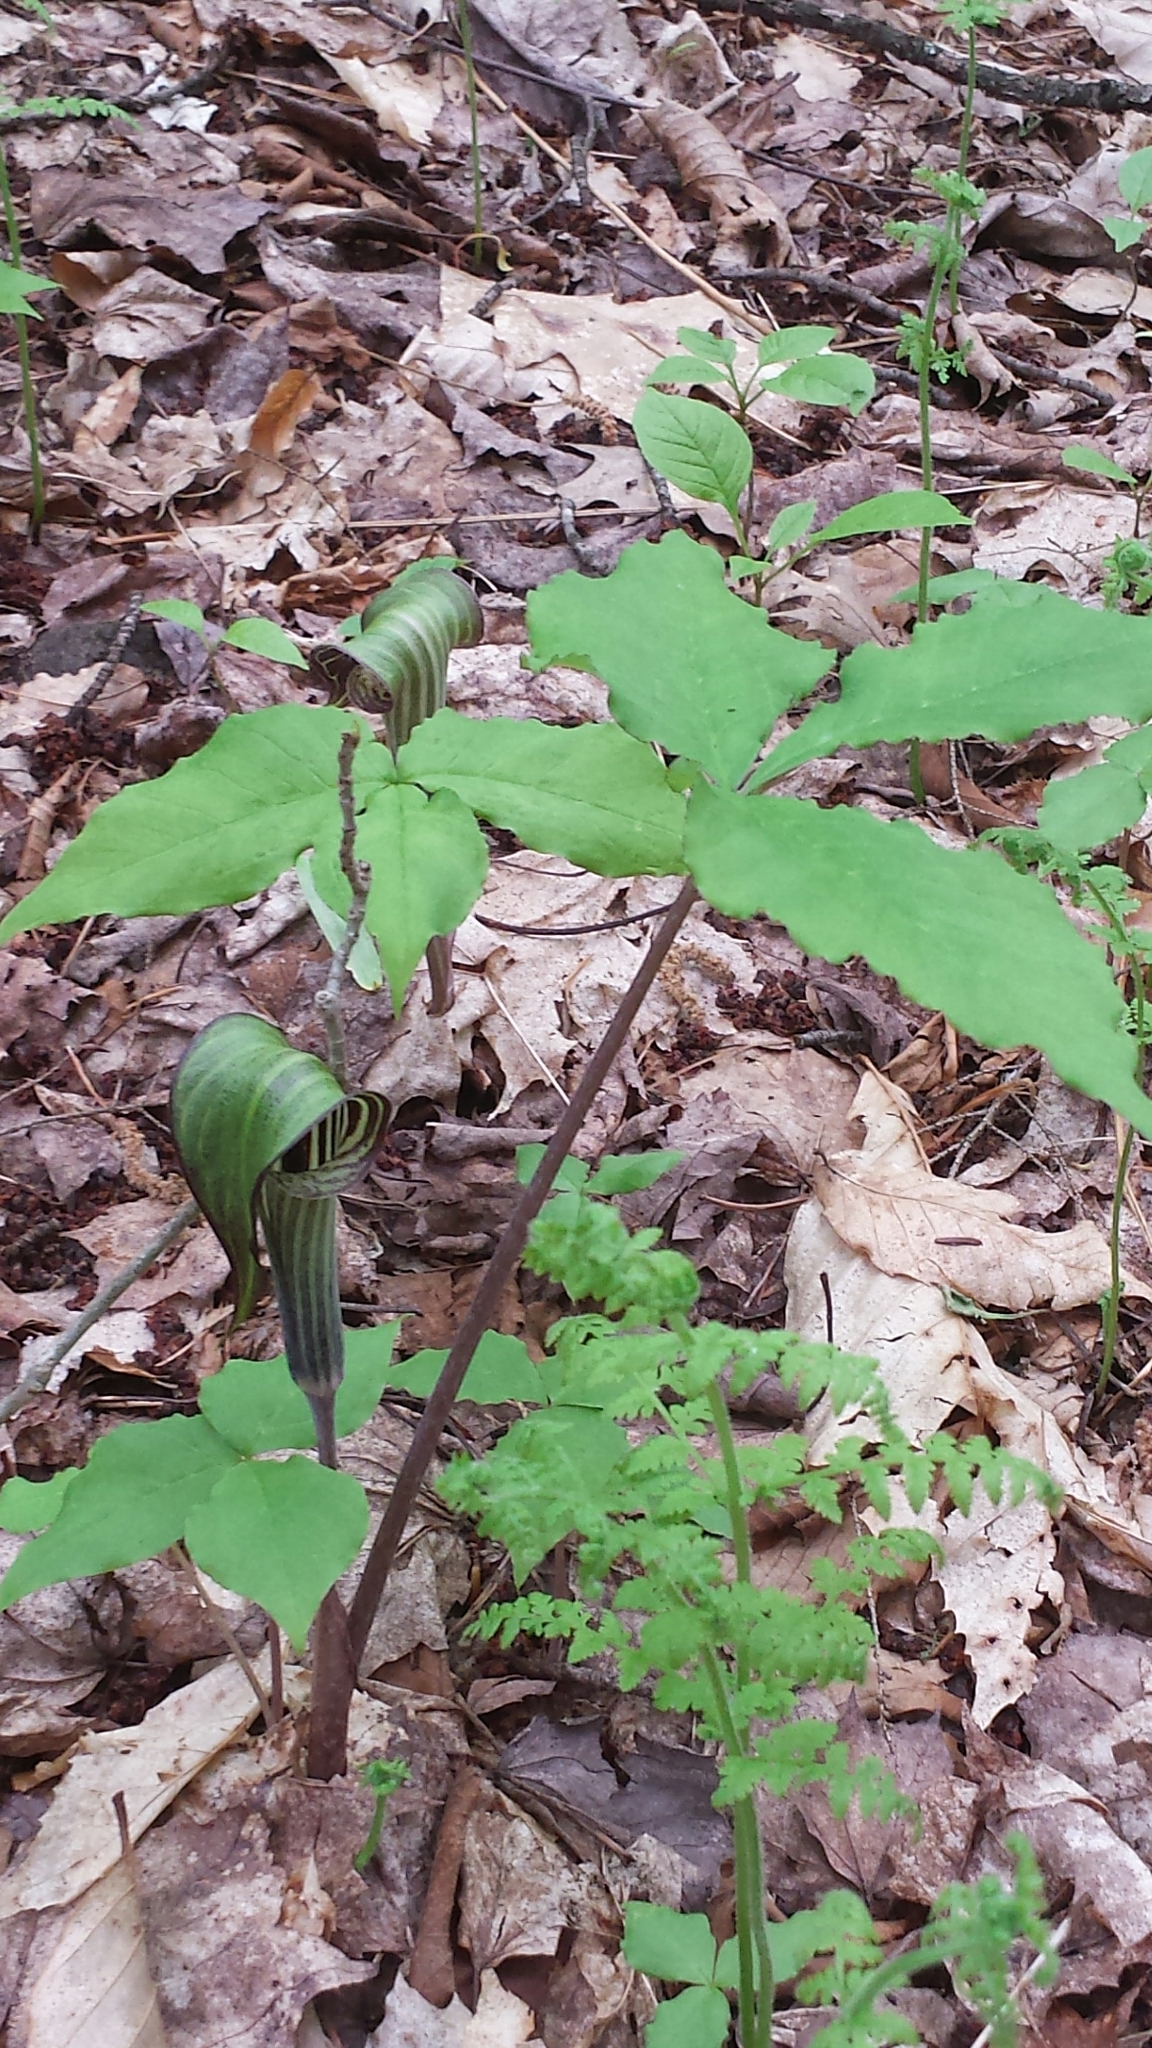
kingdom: Plantae
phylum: Tracheophyta
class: Liliopsida
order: Alismatales
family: Araceae
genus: Arisaema
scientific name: Arisaema triphyllum
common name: Jack-in-the-pulpit
